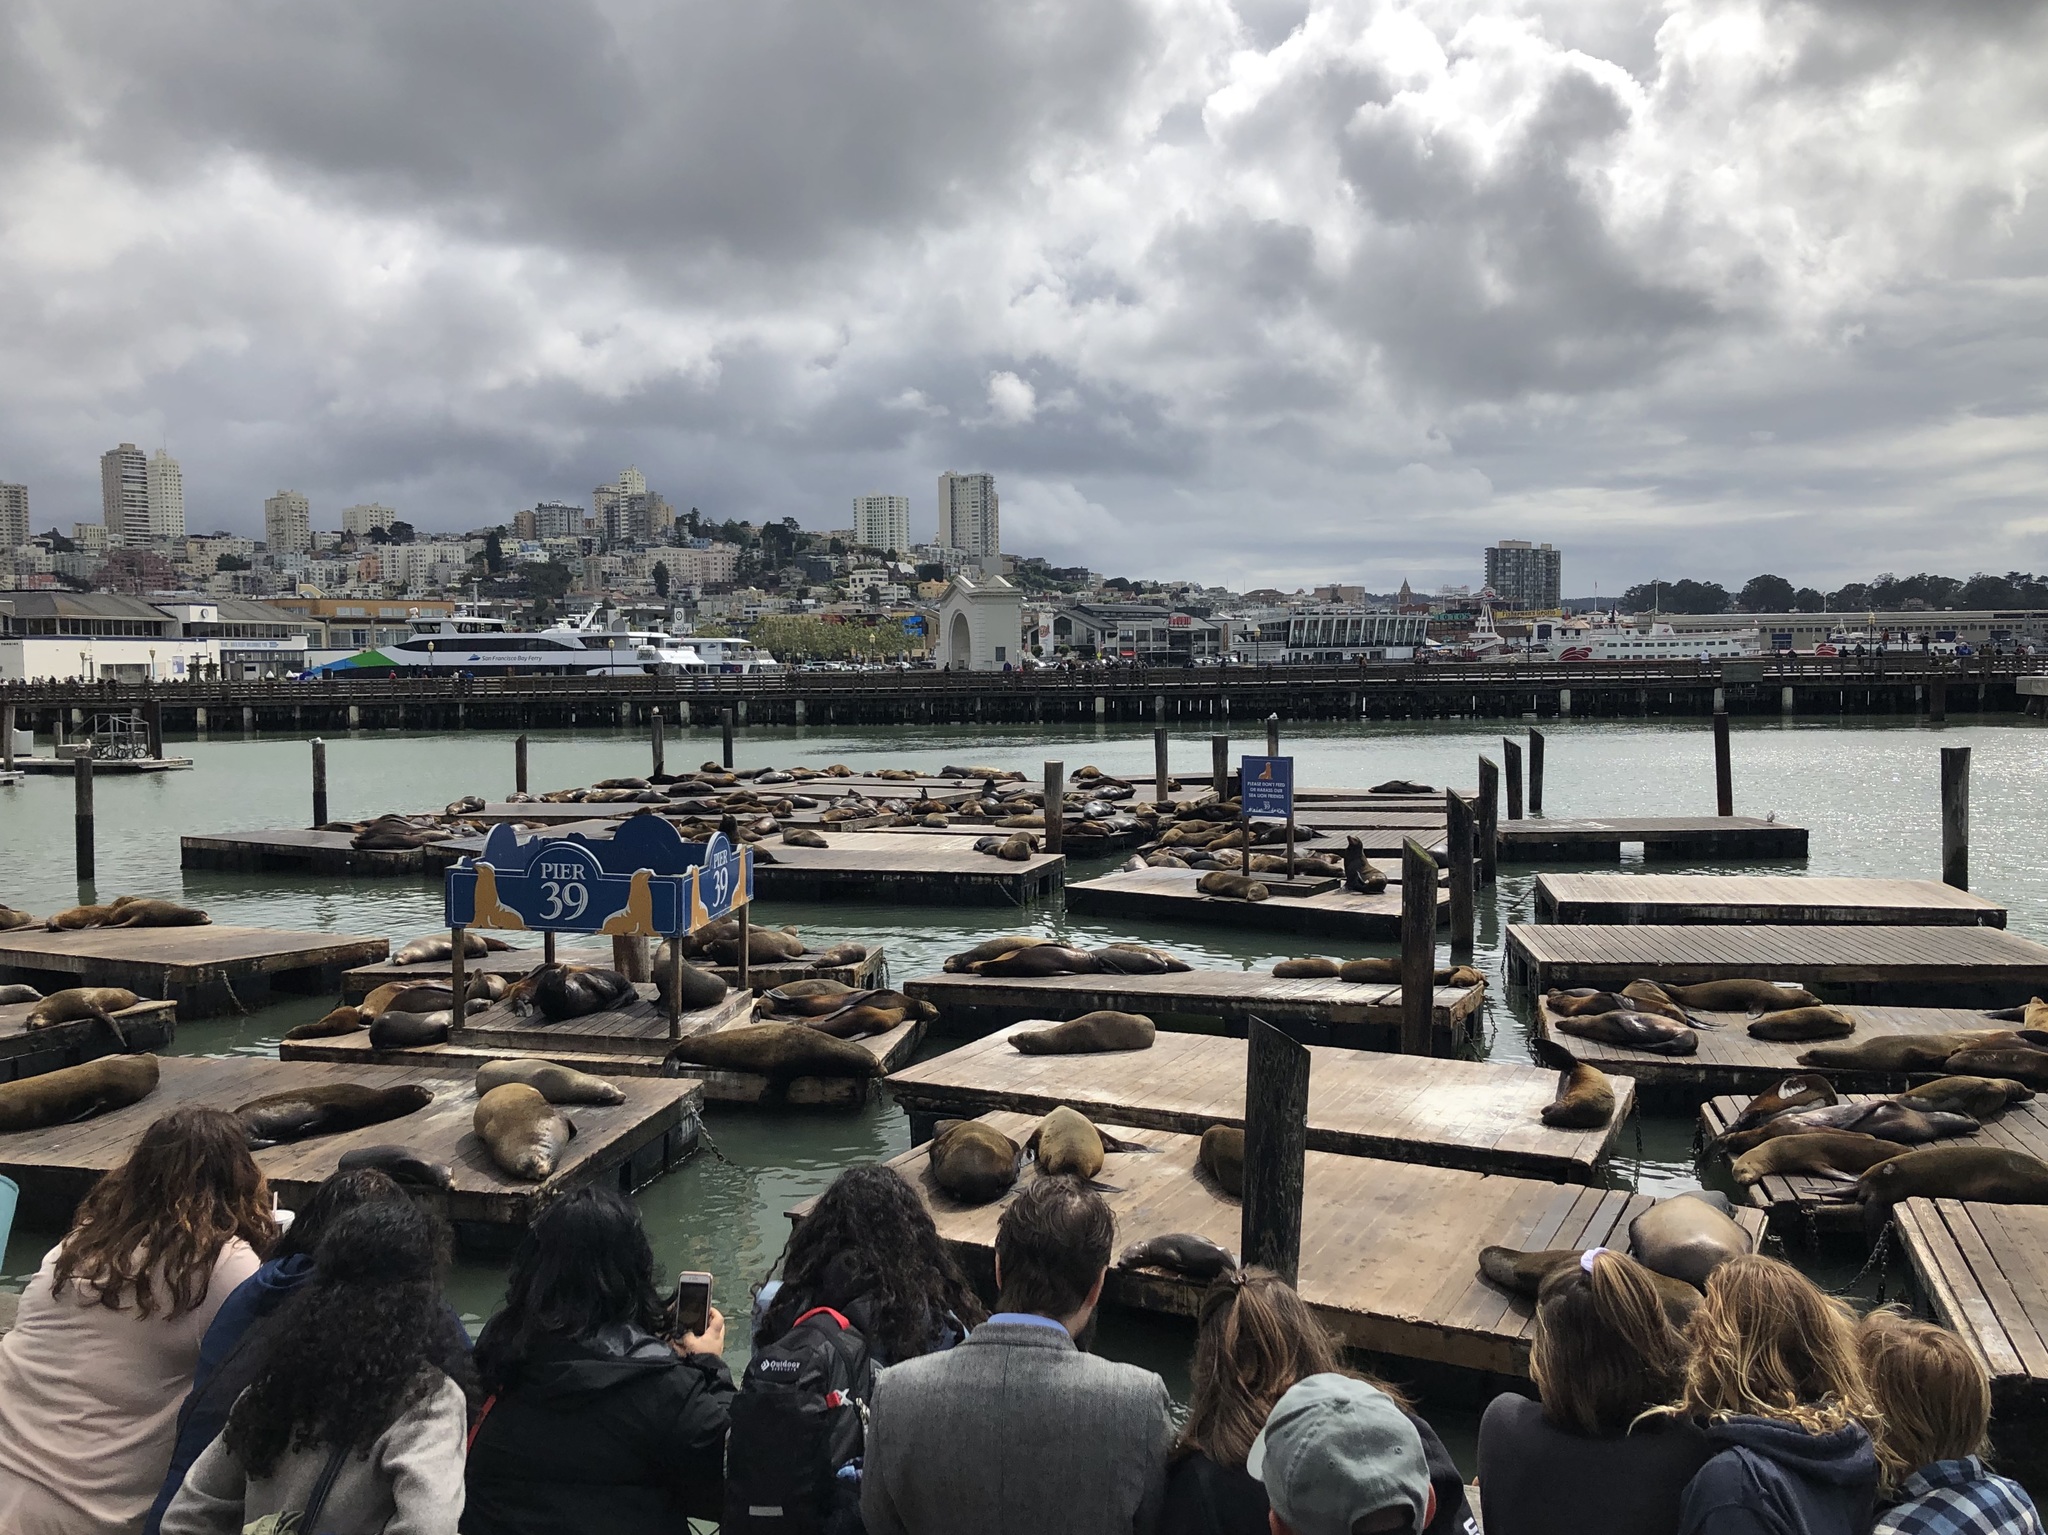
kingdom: Animalia
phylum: Chordata
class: Mammalia
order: Carnivora
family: Otariidae
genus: Zalophus
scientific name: Zalophus californianus
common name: California sea lion
